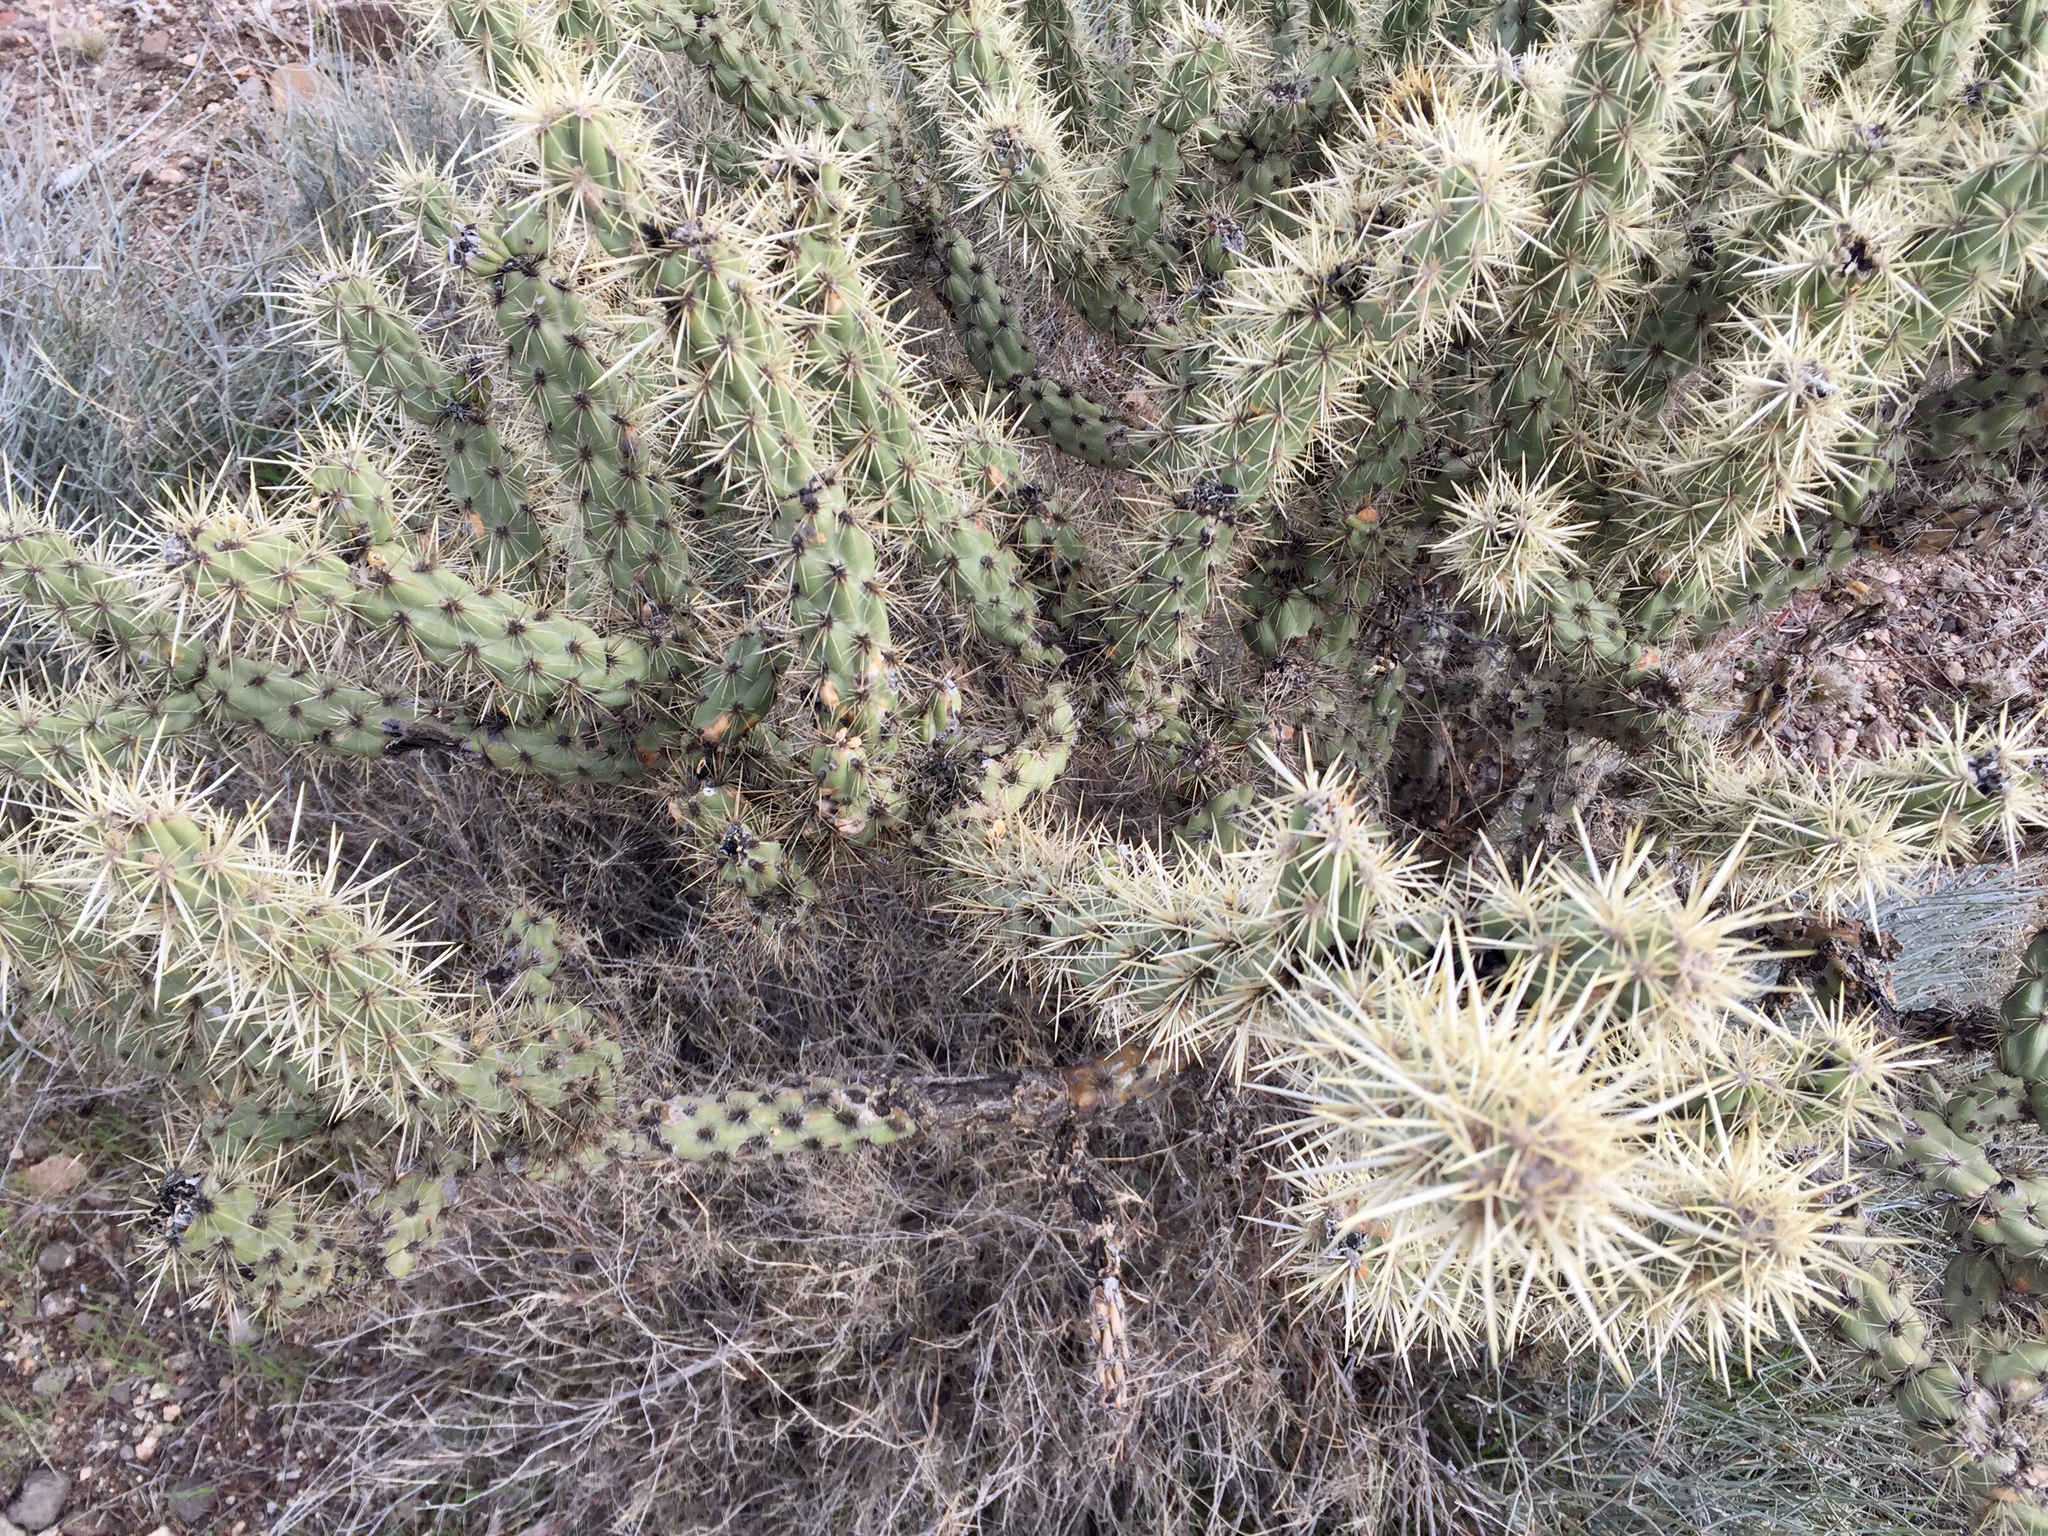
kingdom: Plantae
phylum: Tracheophyta
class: Magnoliopsida
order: Caryophyllales
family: Cactaceae
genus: Cylindropuntia
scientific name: Cylindropuntia acanthocarpa
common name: Buckhorn cholla
